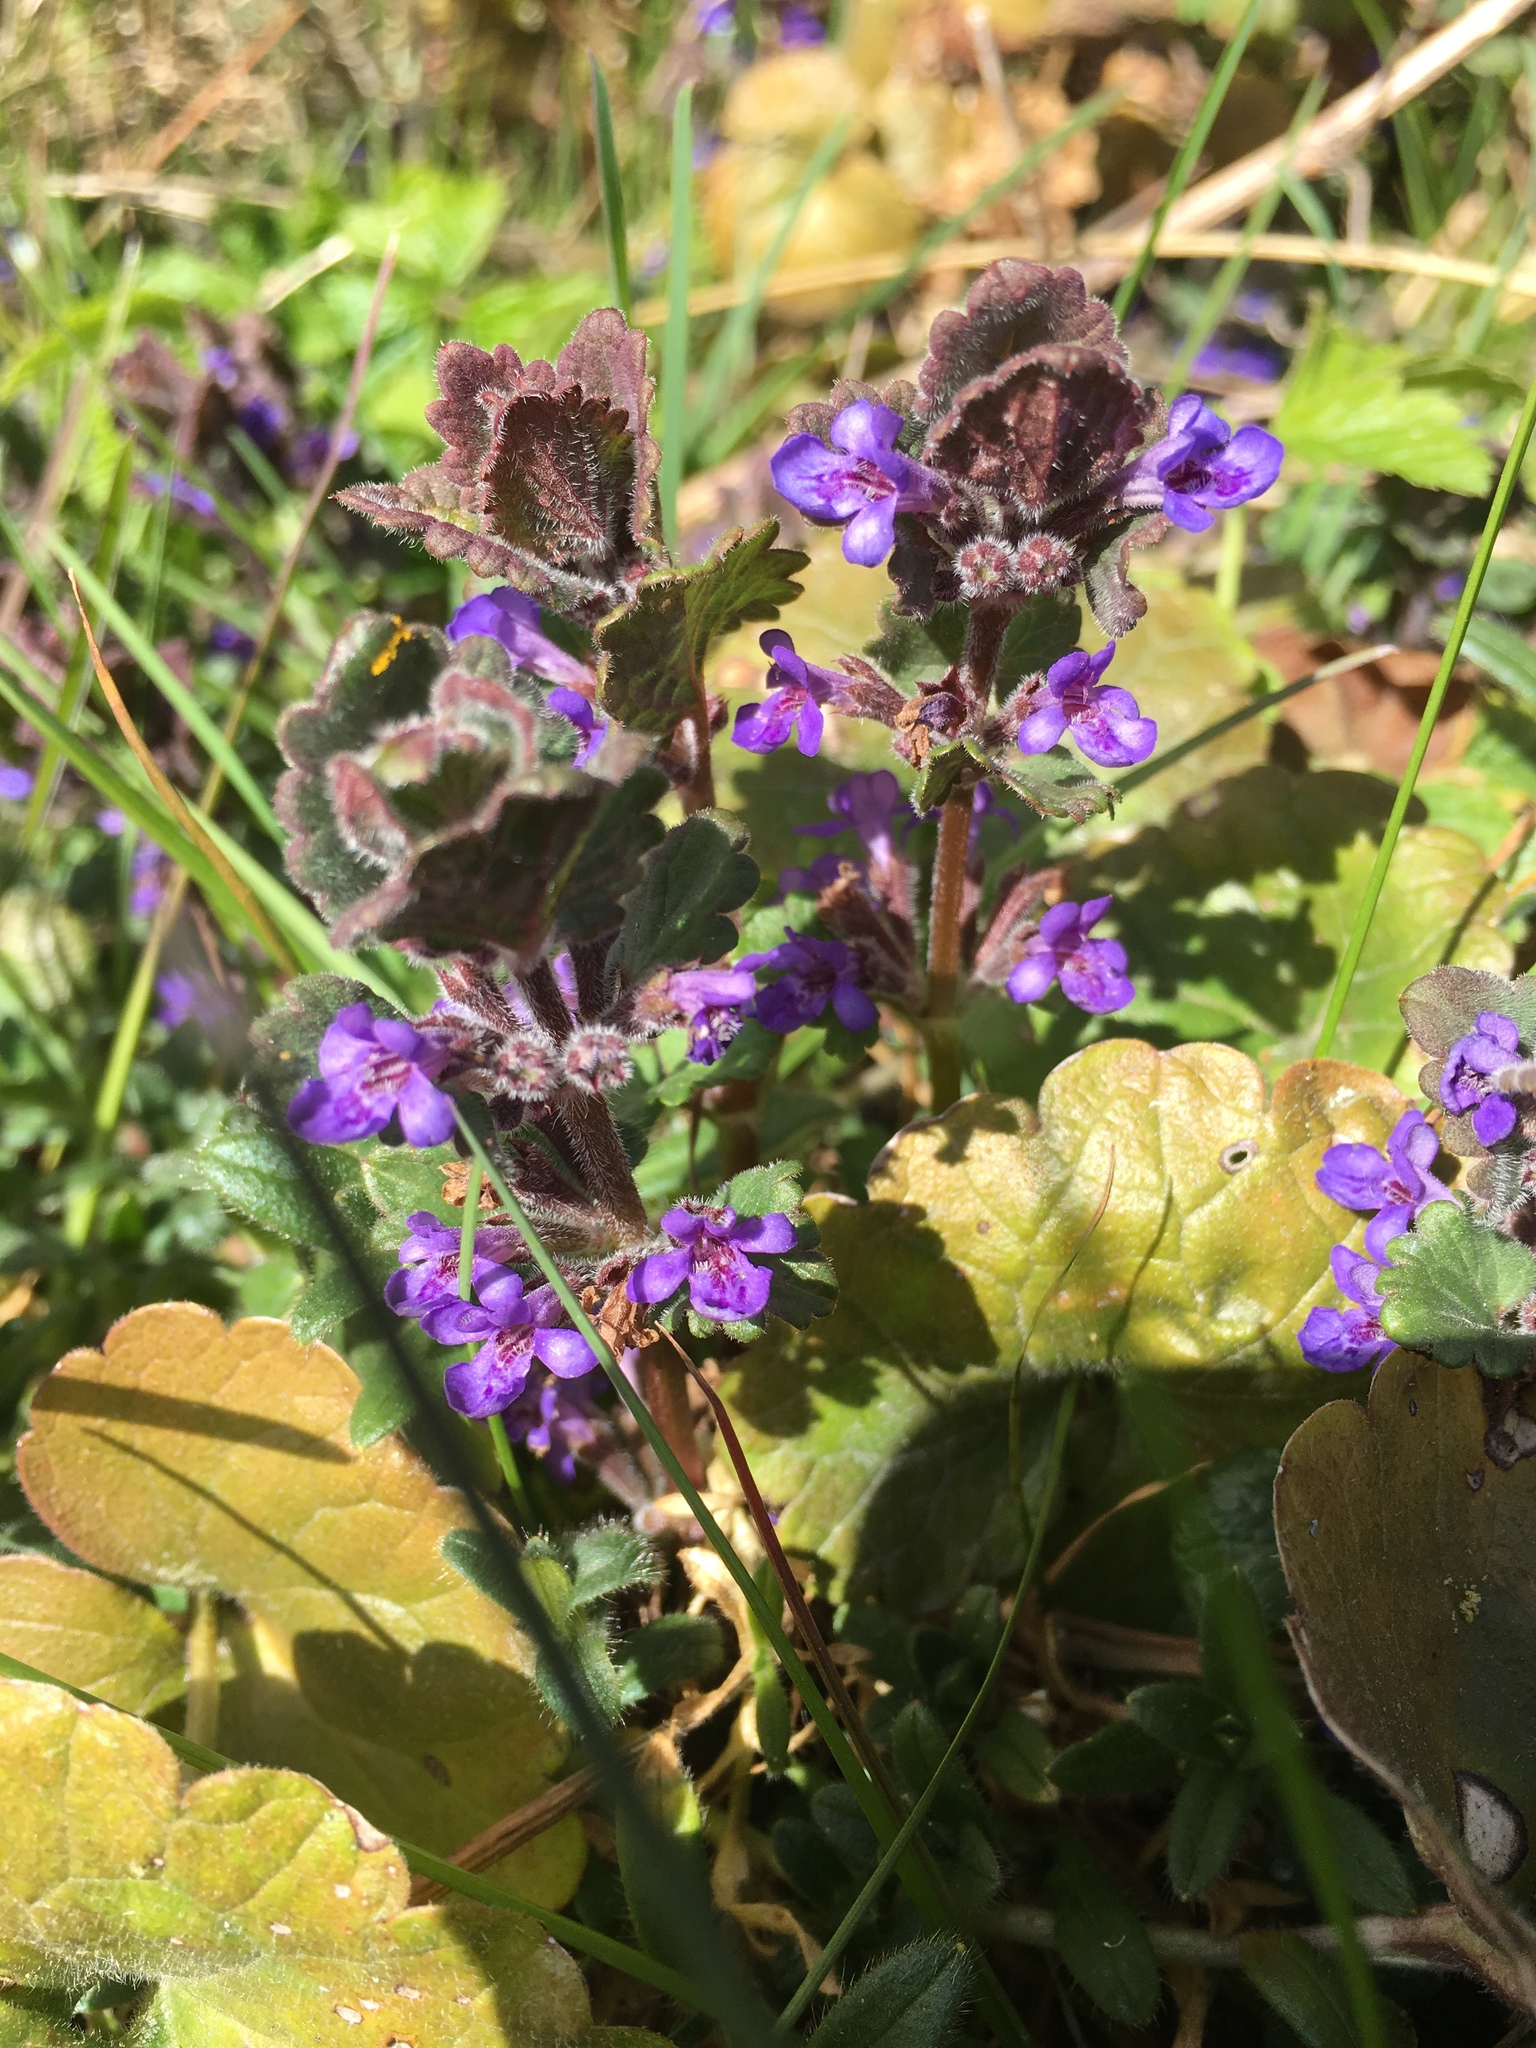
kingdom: Plantae
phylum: Tracheophyta
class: Magnoliopsida
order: Lamiales
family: Lamiaceae
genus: Glechoma
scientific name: Glechoma hederacea
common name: Ground ivy
